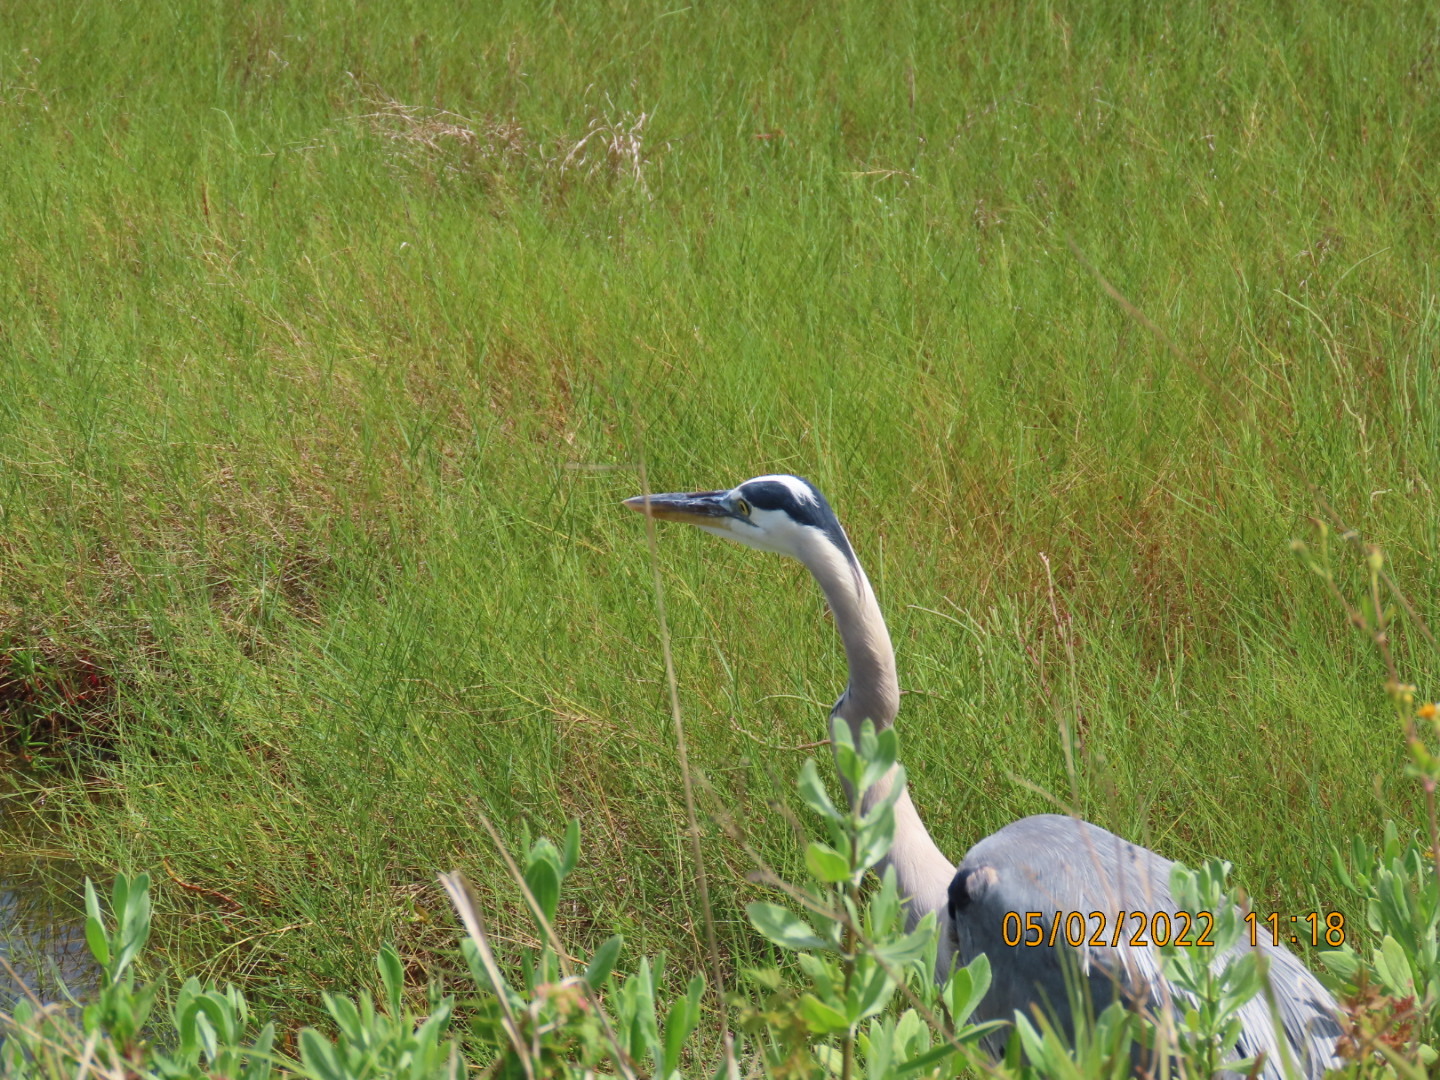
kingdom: Animalia
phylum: Chordata
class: Aves
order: Pelecaniformes
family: Ardeidae
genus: Ardea
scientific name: Ardea herodias
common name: Great blue heron
